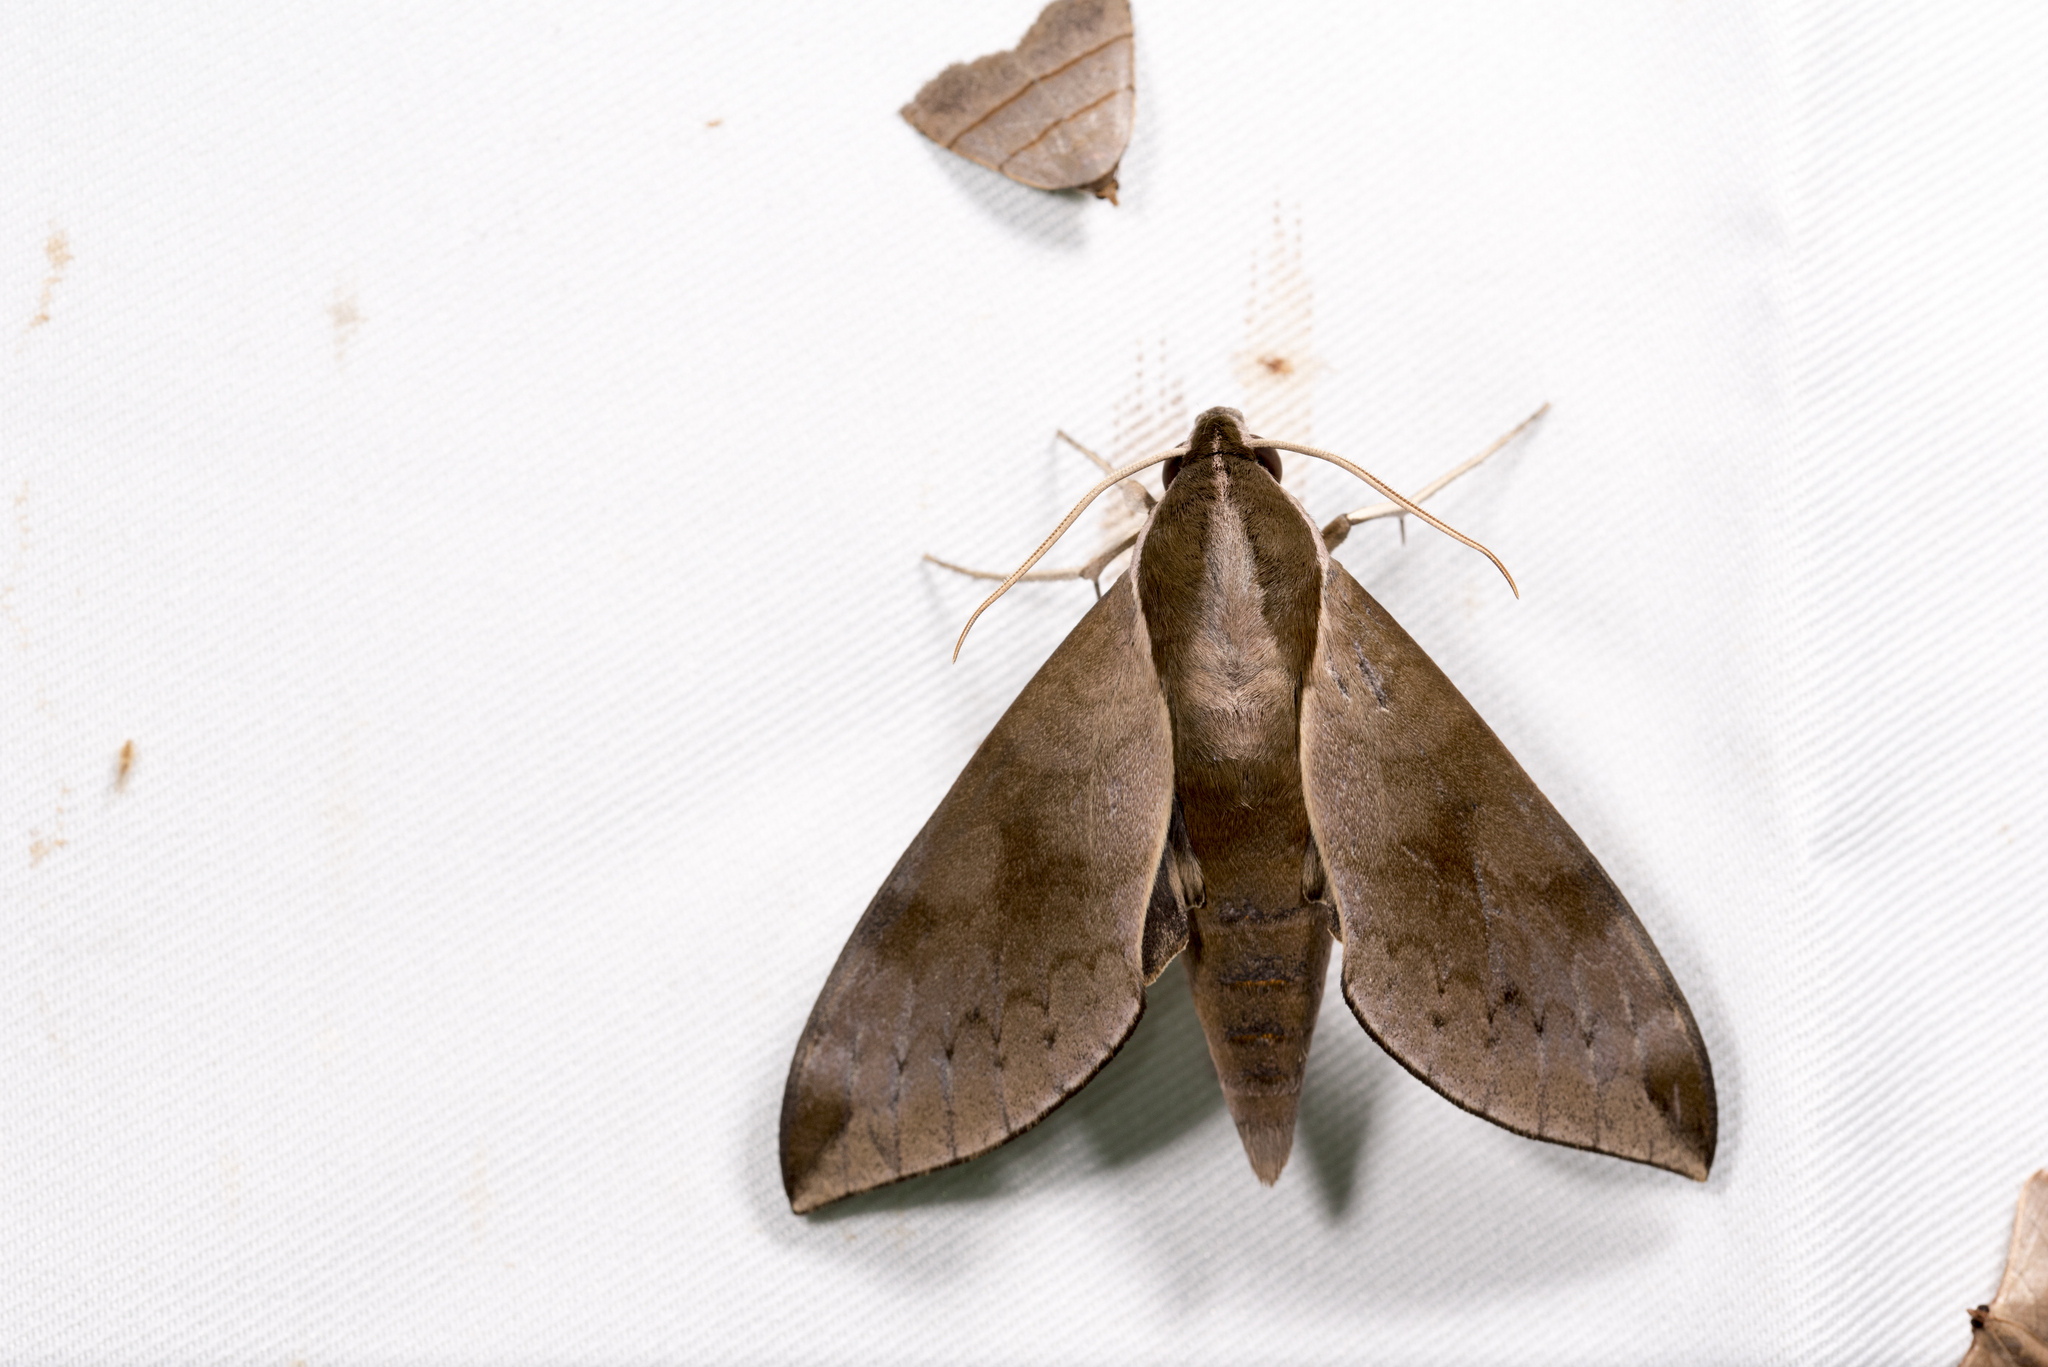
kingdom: Animalia
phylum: Arthropoda
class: Insecta
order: Lepidoptera
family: Sphingidae
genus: Acosmerycoides
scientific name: Acosmerycoides harterti
